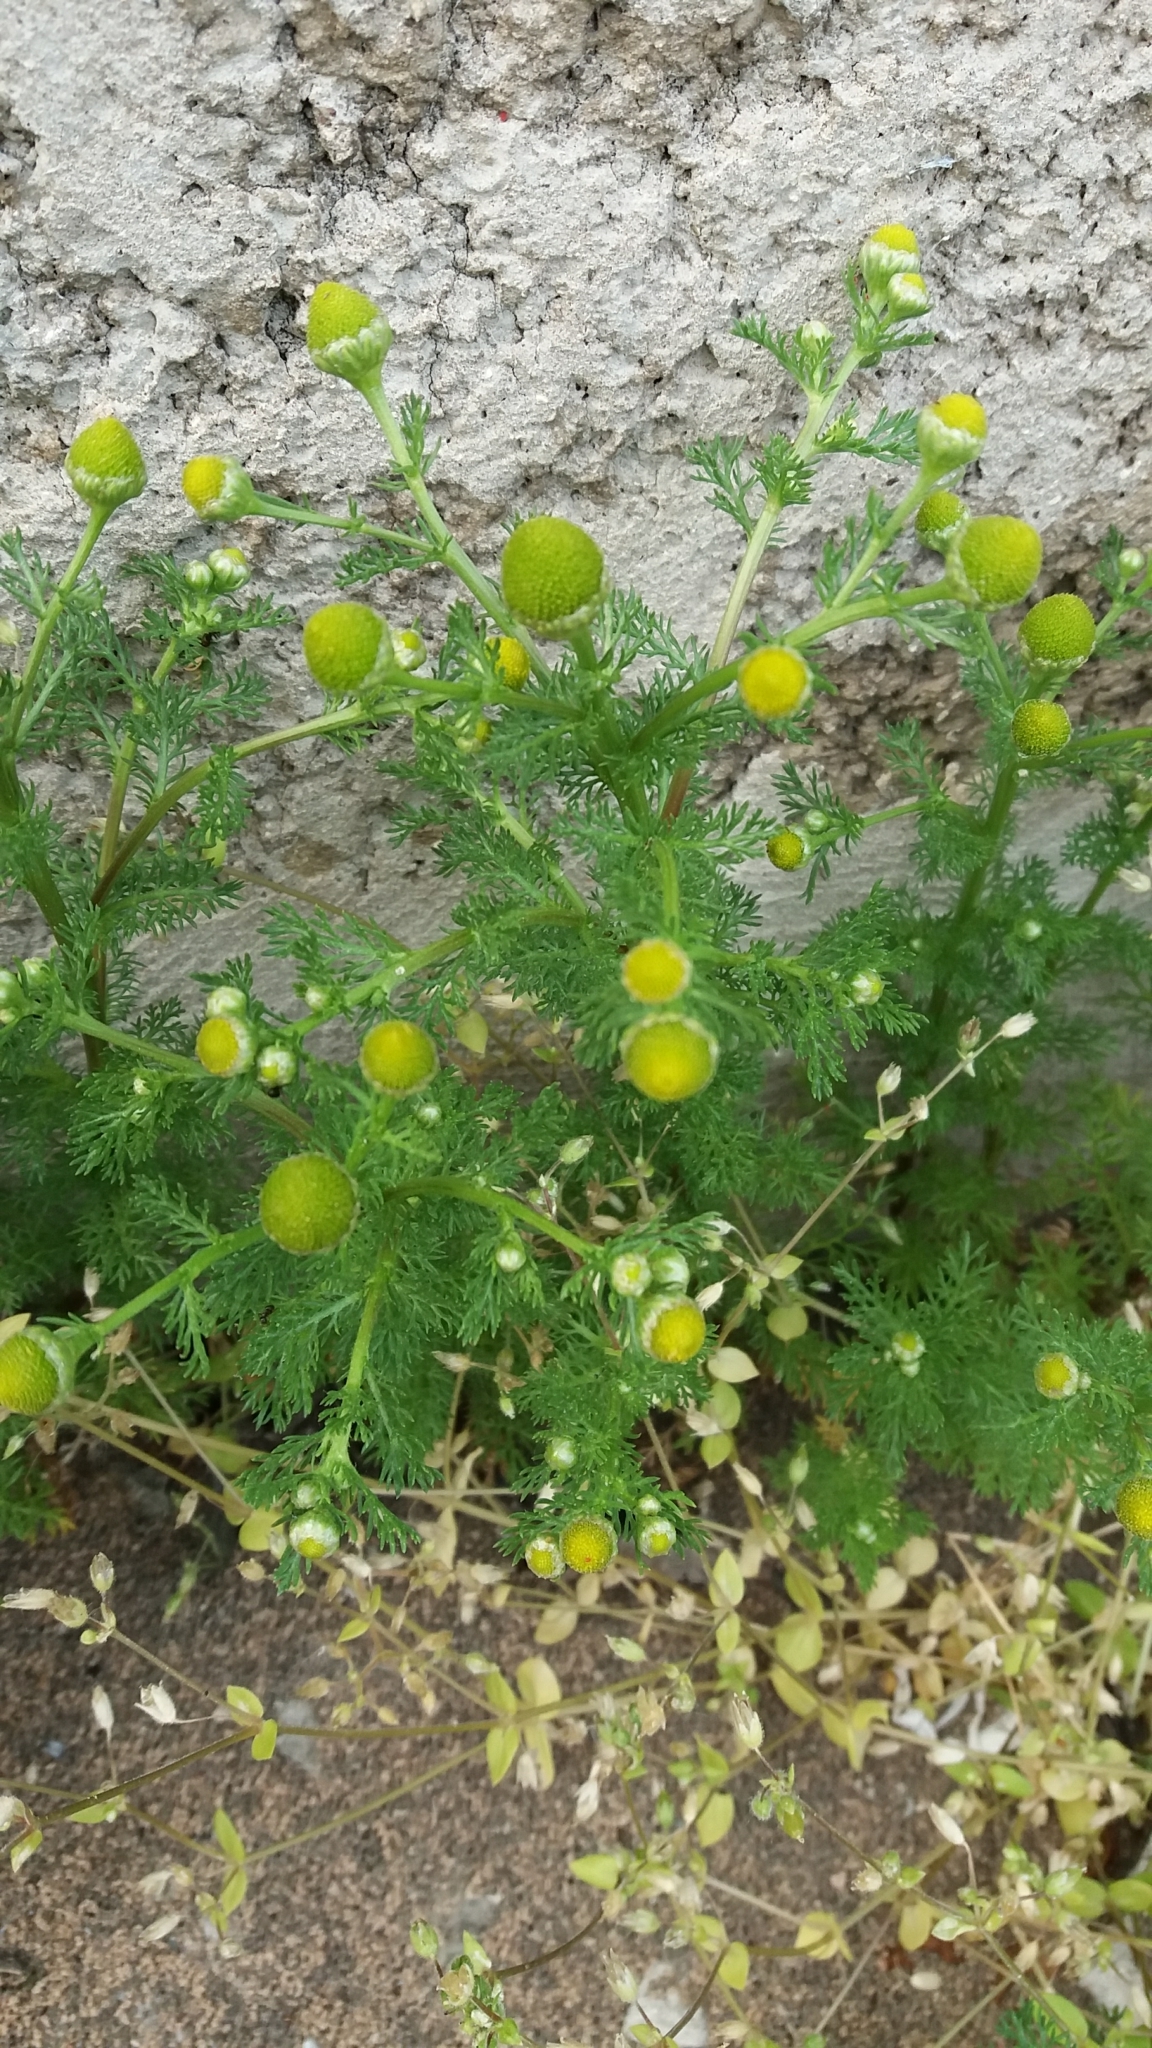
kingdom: Plantae
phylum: Tracheophyta
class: Magnoliopsida
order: Asterales
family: Asteraceae
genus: Matricaria
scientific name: Matricaria discoidea
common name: Disc mayweed
